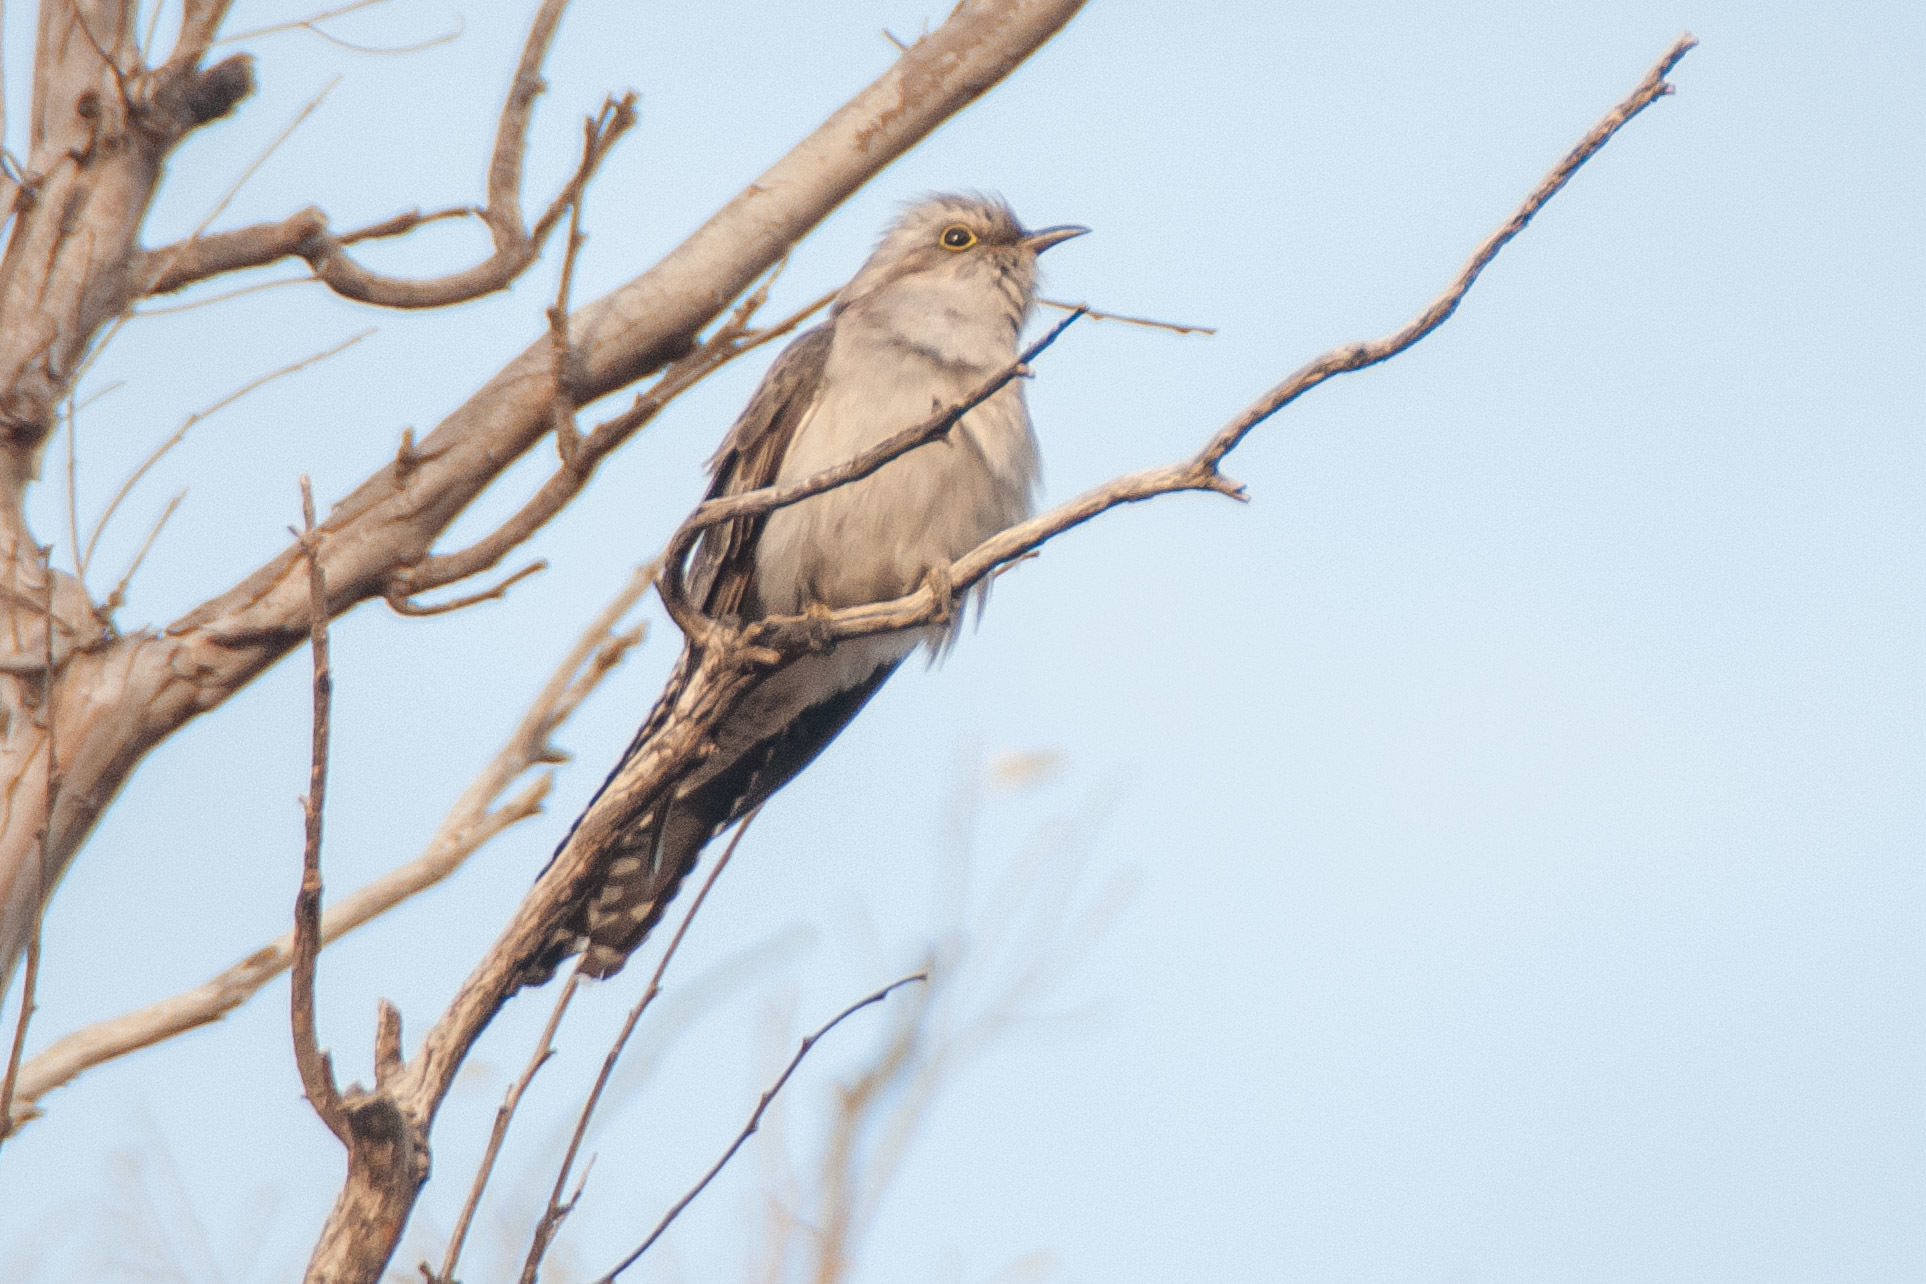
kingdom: Animalia
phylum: Chordata
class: Aves
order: Cuculiformes
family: Cuculidae
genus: Cuculus
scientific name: Cuculus pallidus
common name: Pallid cuckoo
